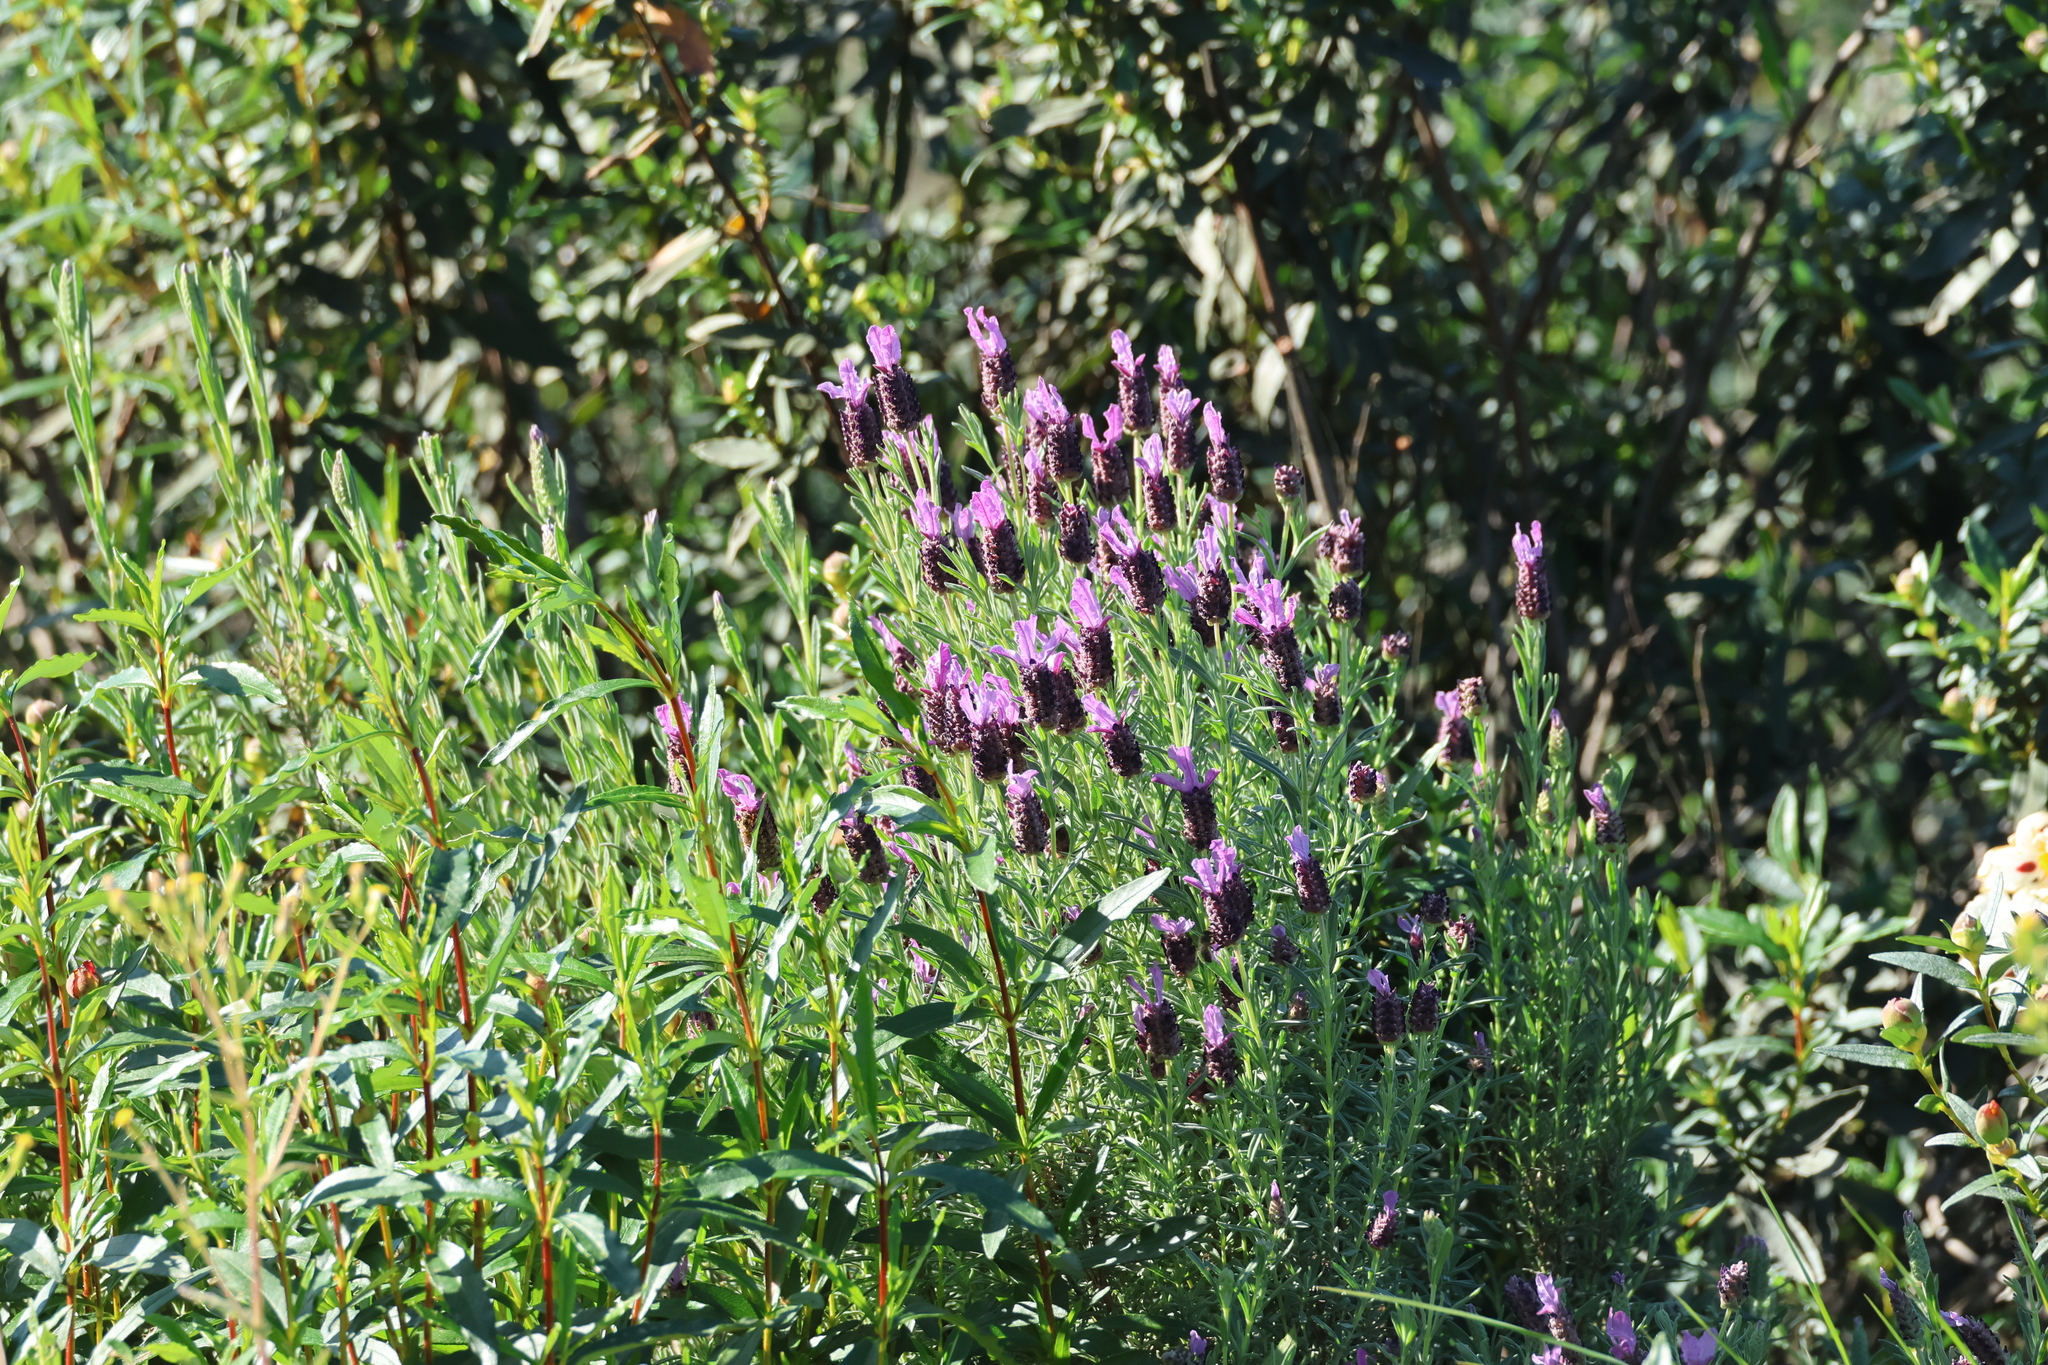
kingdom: Plantae
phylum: Tracheophyta
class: Magnoliopsida
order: Lamiales
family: Lamiaceae
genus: Lavandula
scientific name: Lavandula stoechas
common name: French lavender
